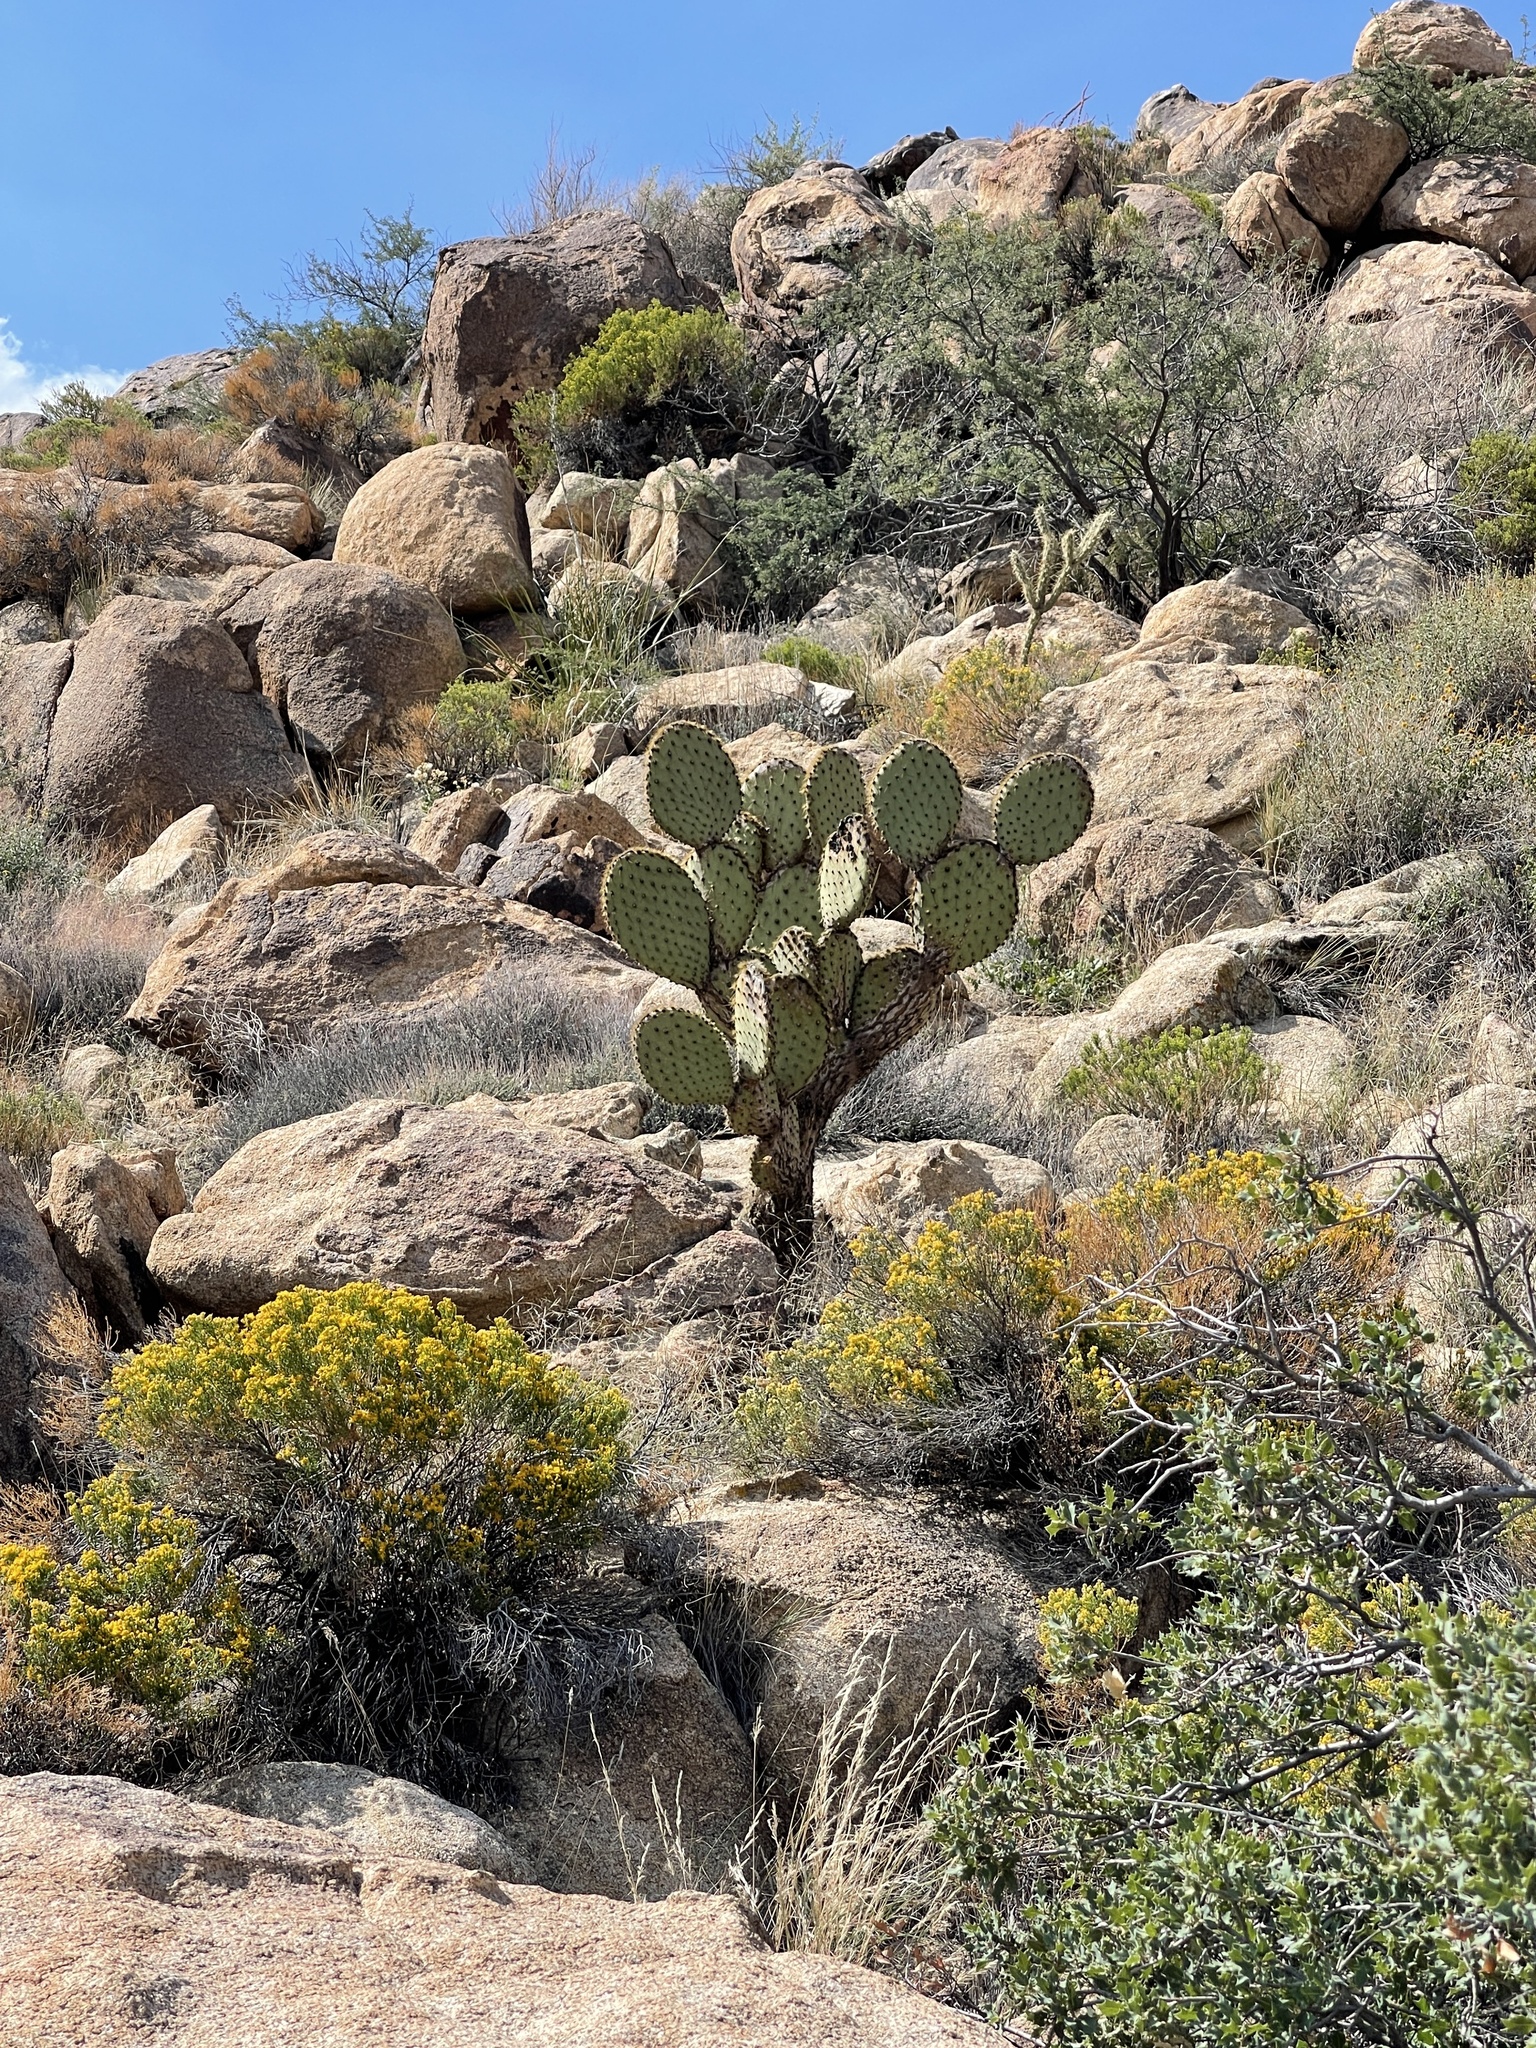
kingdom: Plantae
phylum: Tracheophyta
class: Magnoliopsida
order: Caryophyllales
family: Cactaceae
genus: Opuntia
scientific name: Opuntia chlorotica
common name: Dollar-joint prickly-pear
